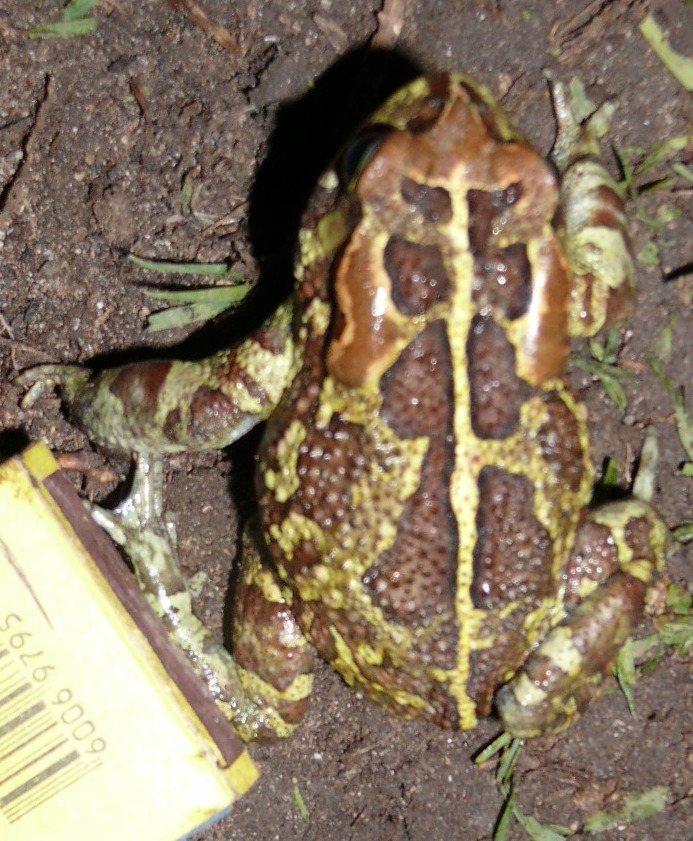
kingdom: Animalia
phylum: Chordata
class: Amphibia
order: Anura
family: Bufonidae
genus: Sclerophrys
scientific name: Sclerophrys pantherina
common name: Panther toad
